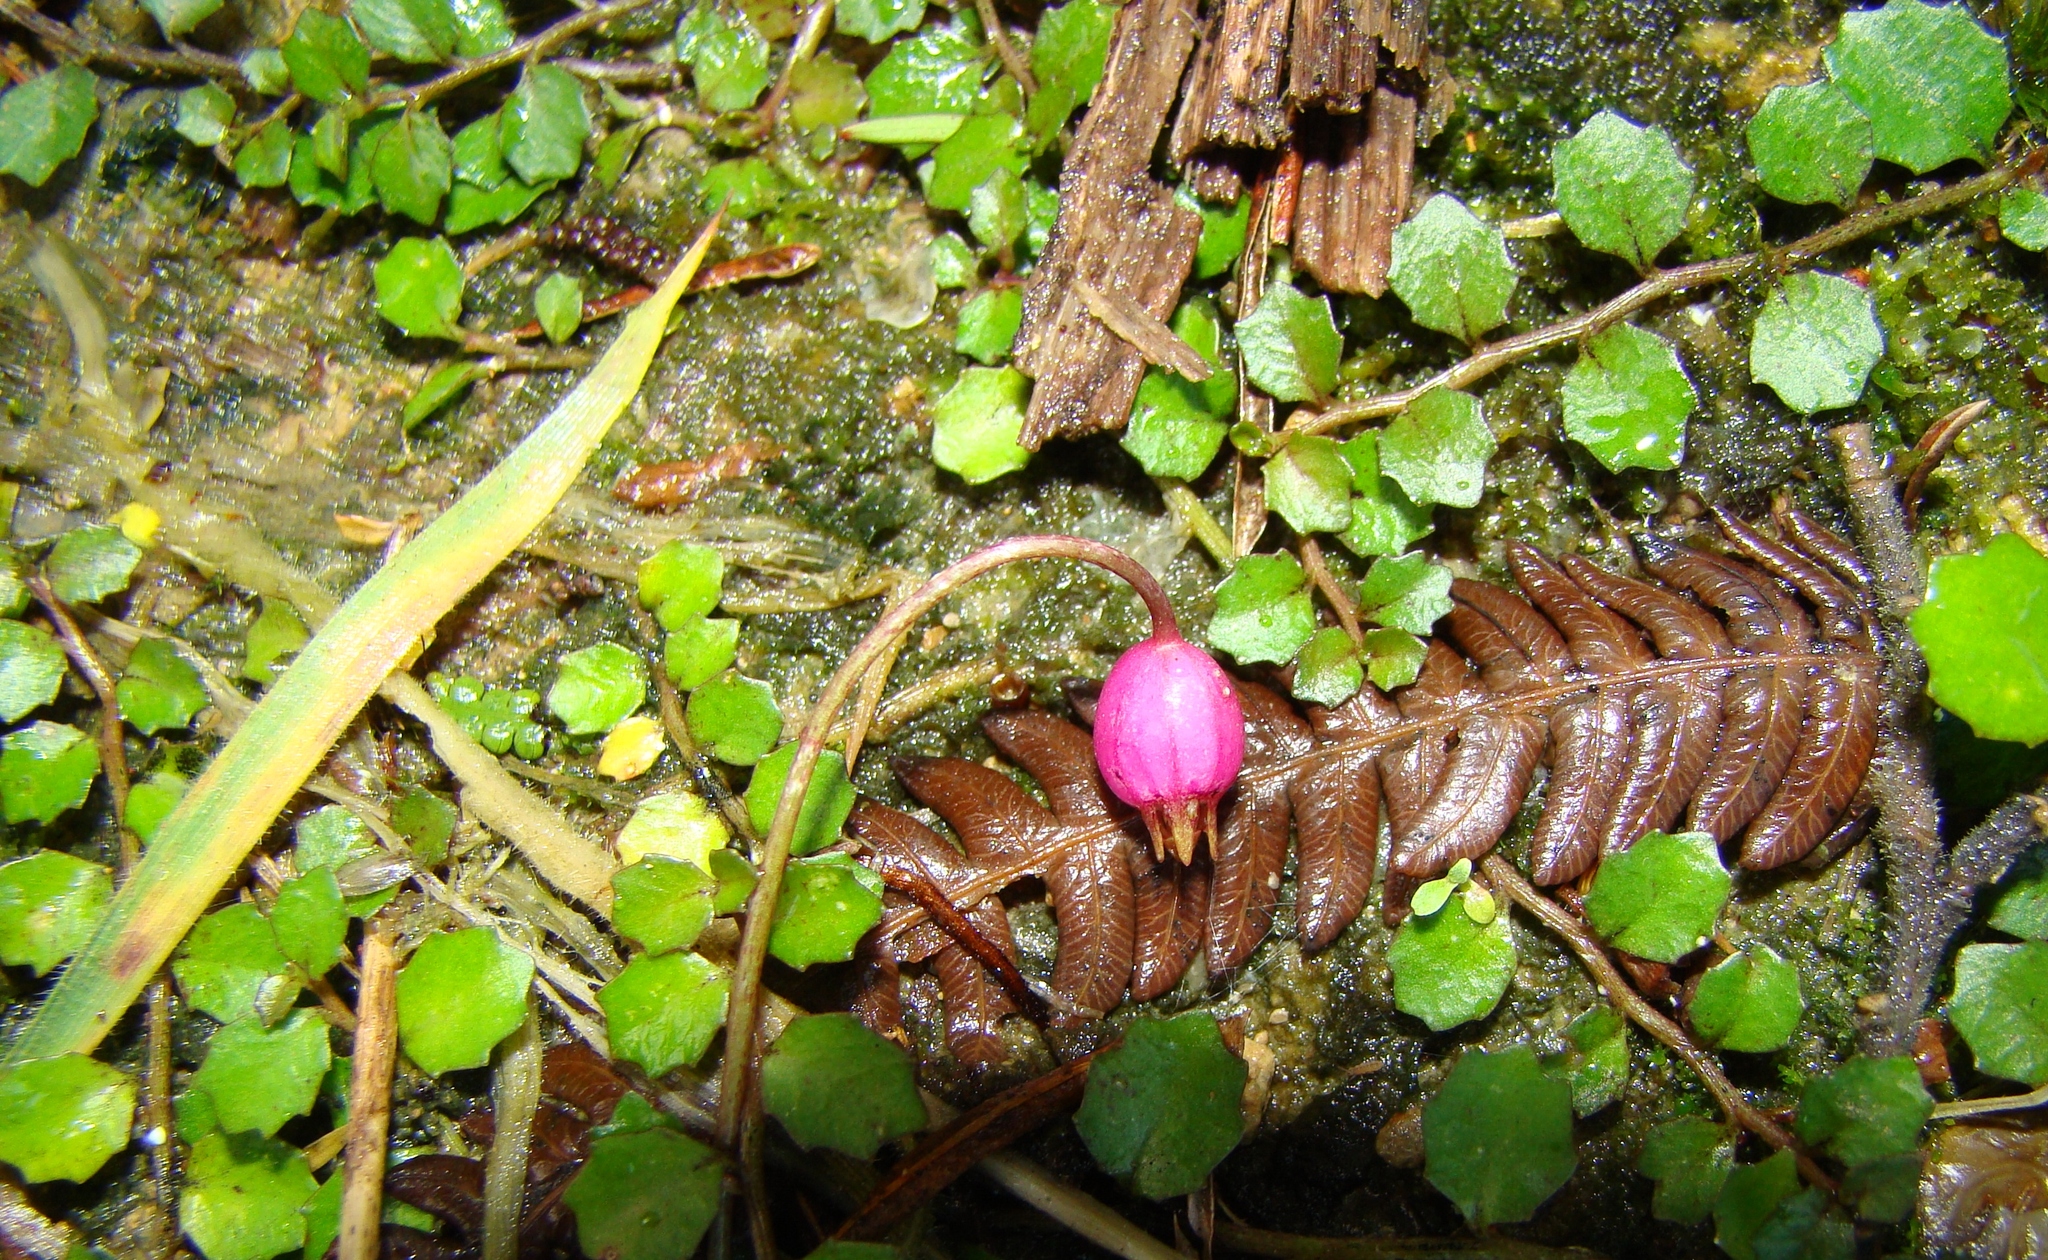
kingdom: Plantae
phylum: Tracheophyta
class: Magnoliopsida
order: Asterales
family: Campanulaceae
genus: Lobelia
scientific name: Lobelia angulata
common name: Lawn lobelia
